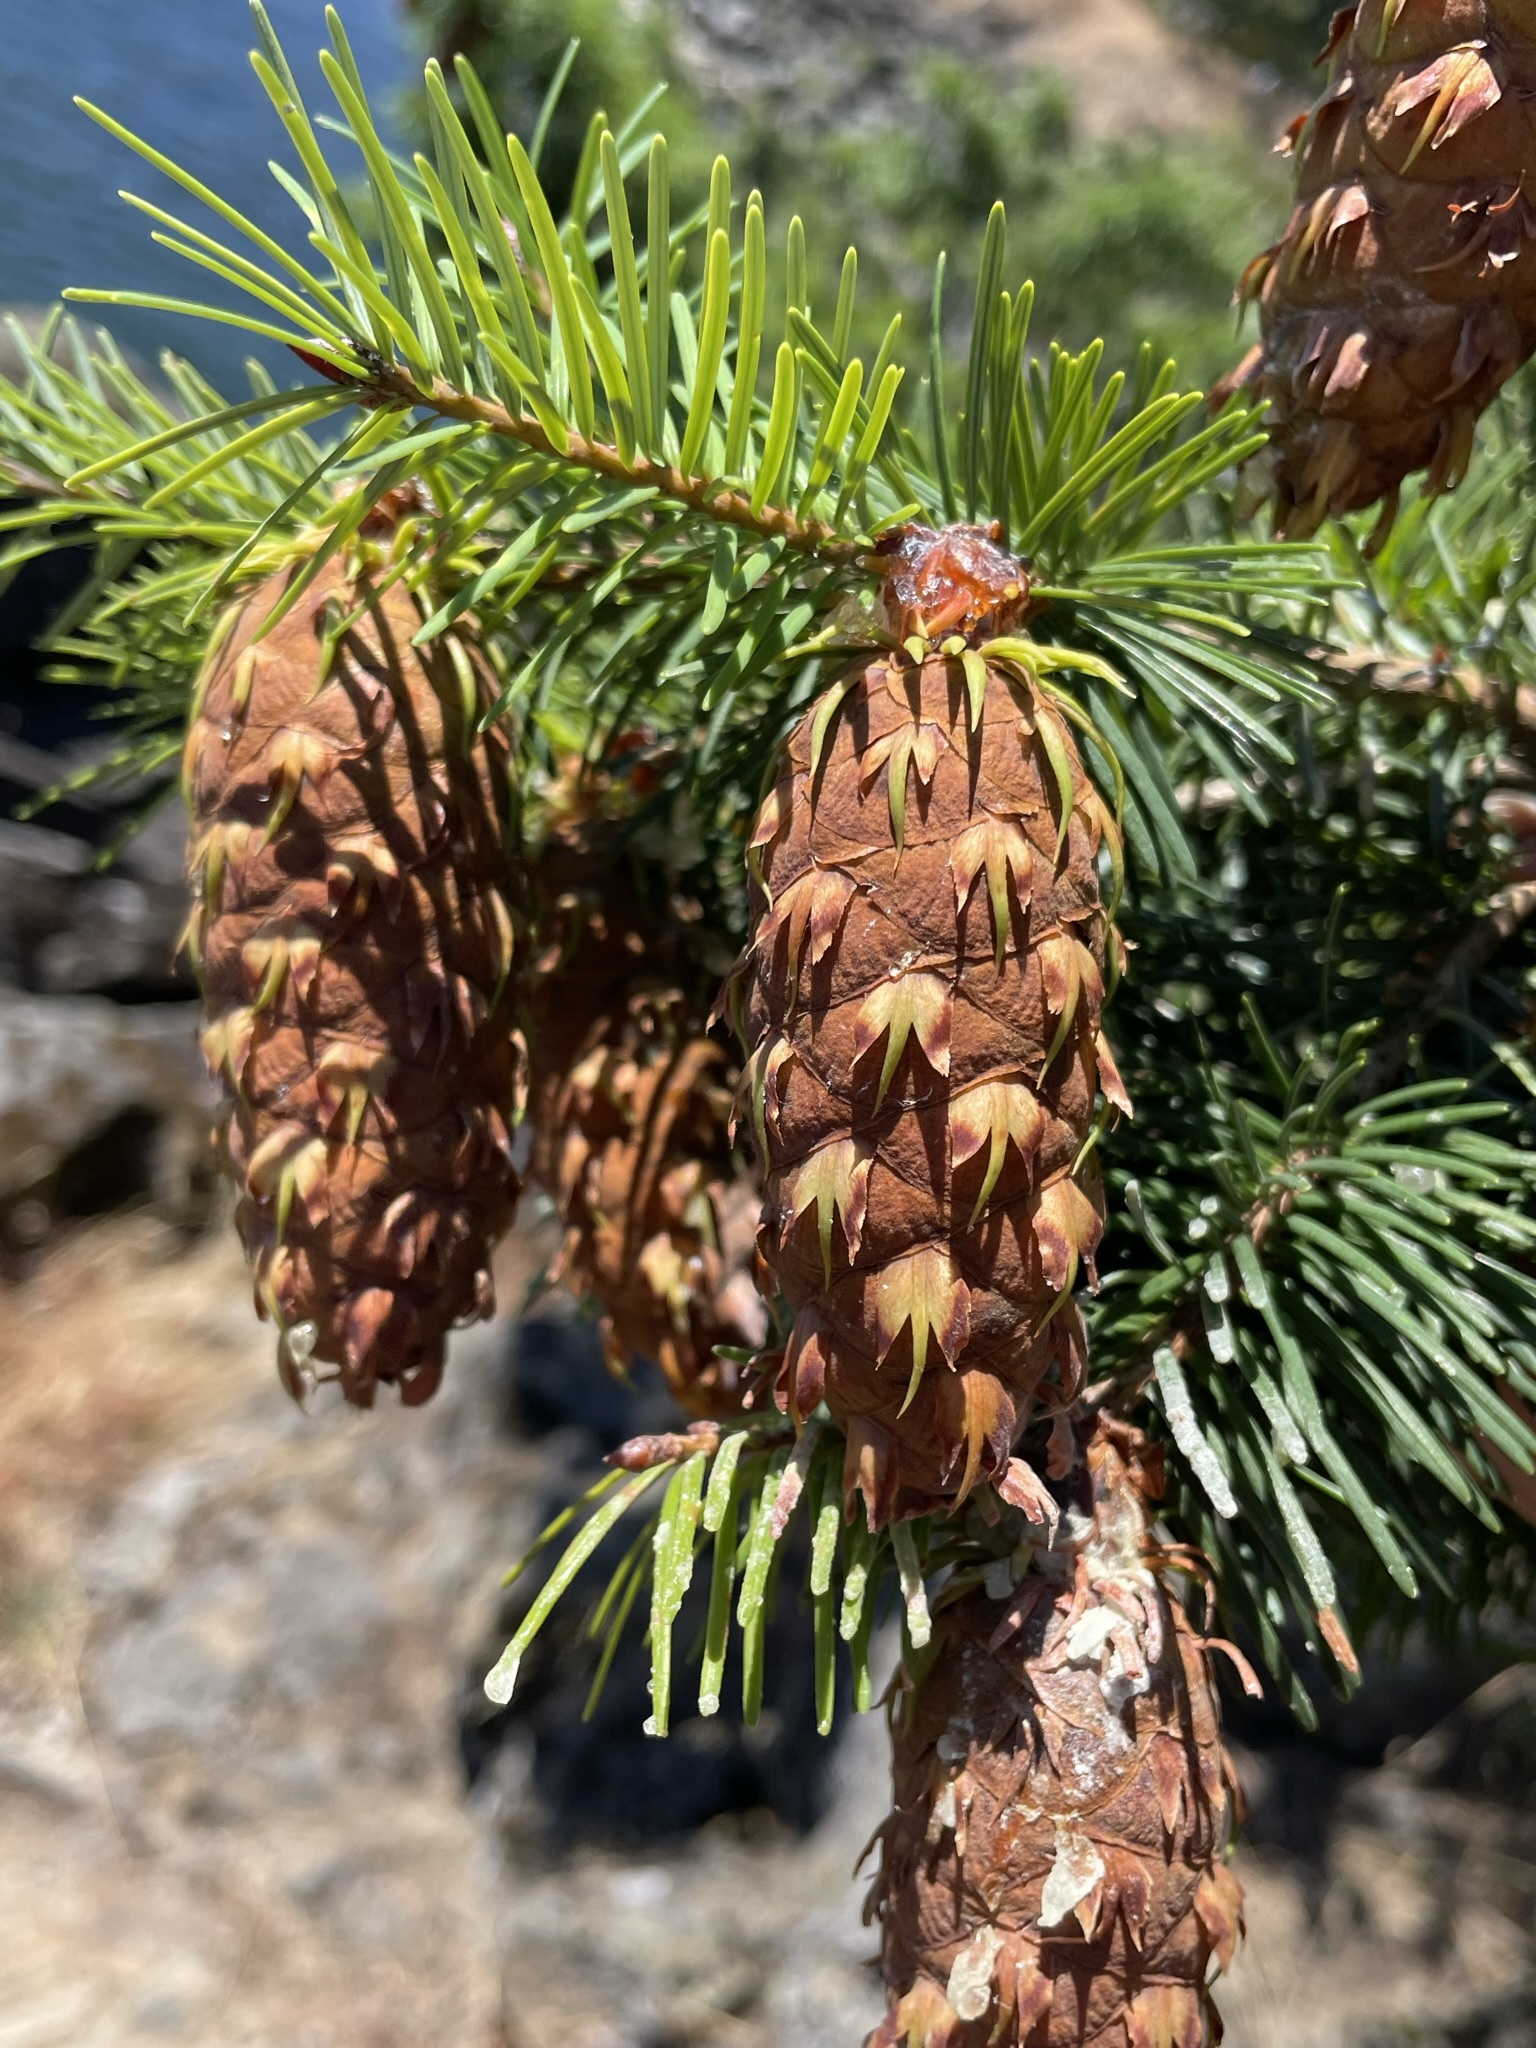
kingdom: Plantae
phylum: Tracheophyta
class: Pinopsida
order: Pinales
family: Pinaceae
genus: Pseudotsuga
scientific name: Pseudotsuga menziesii
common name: Douglas fir
